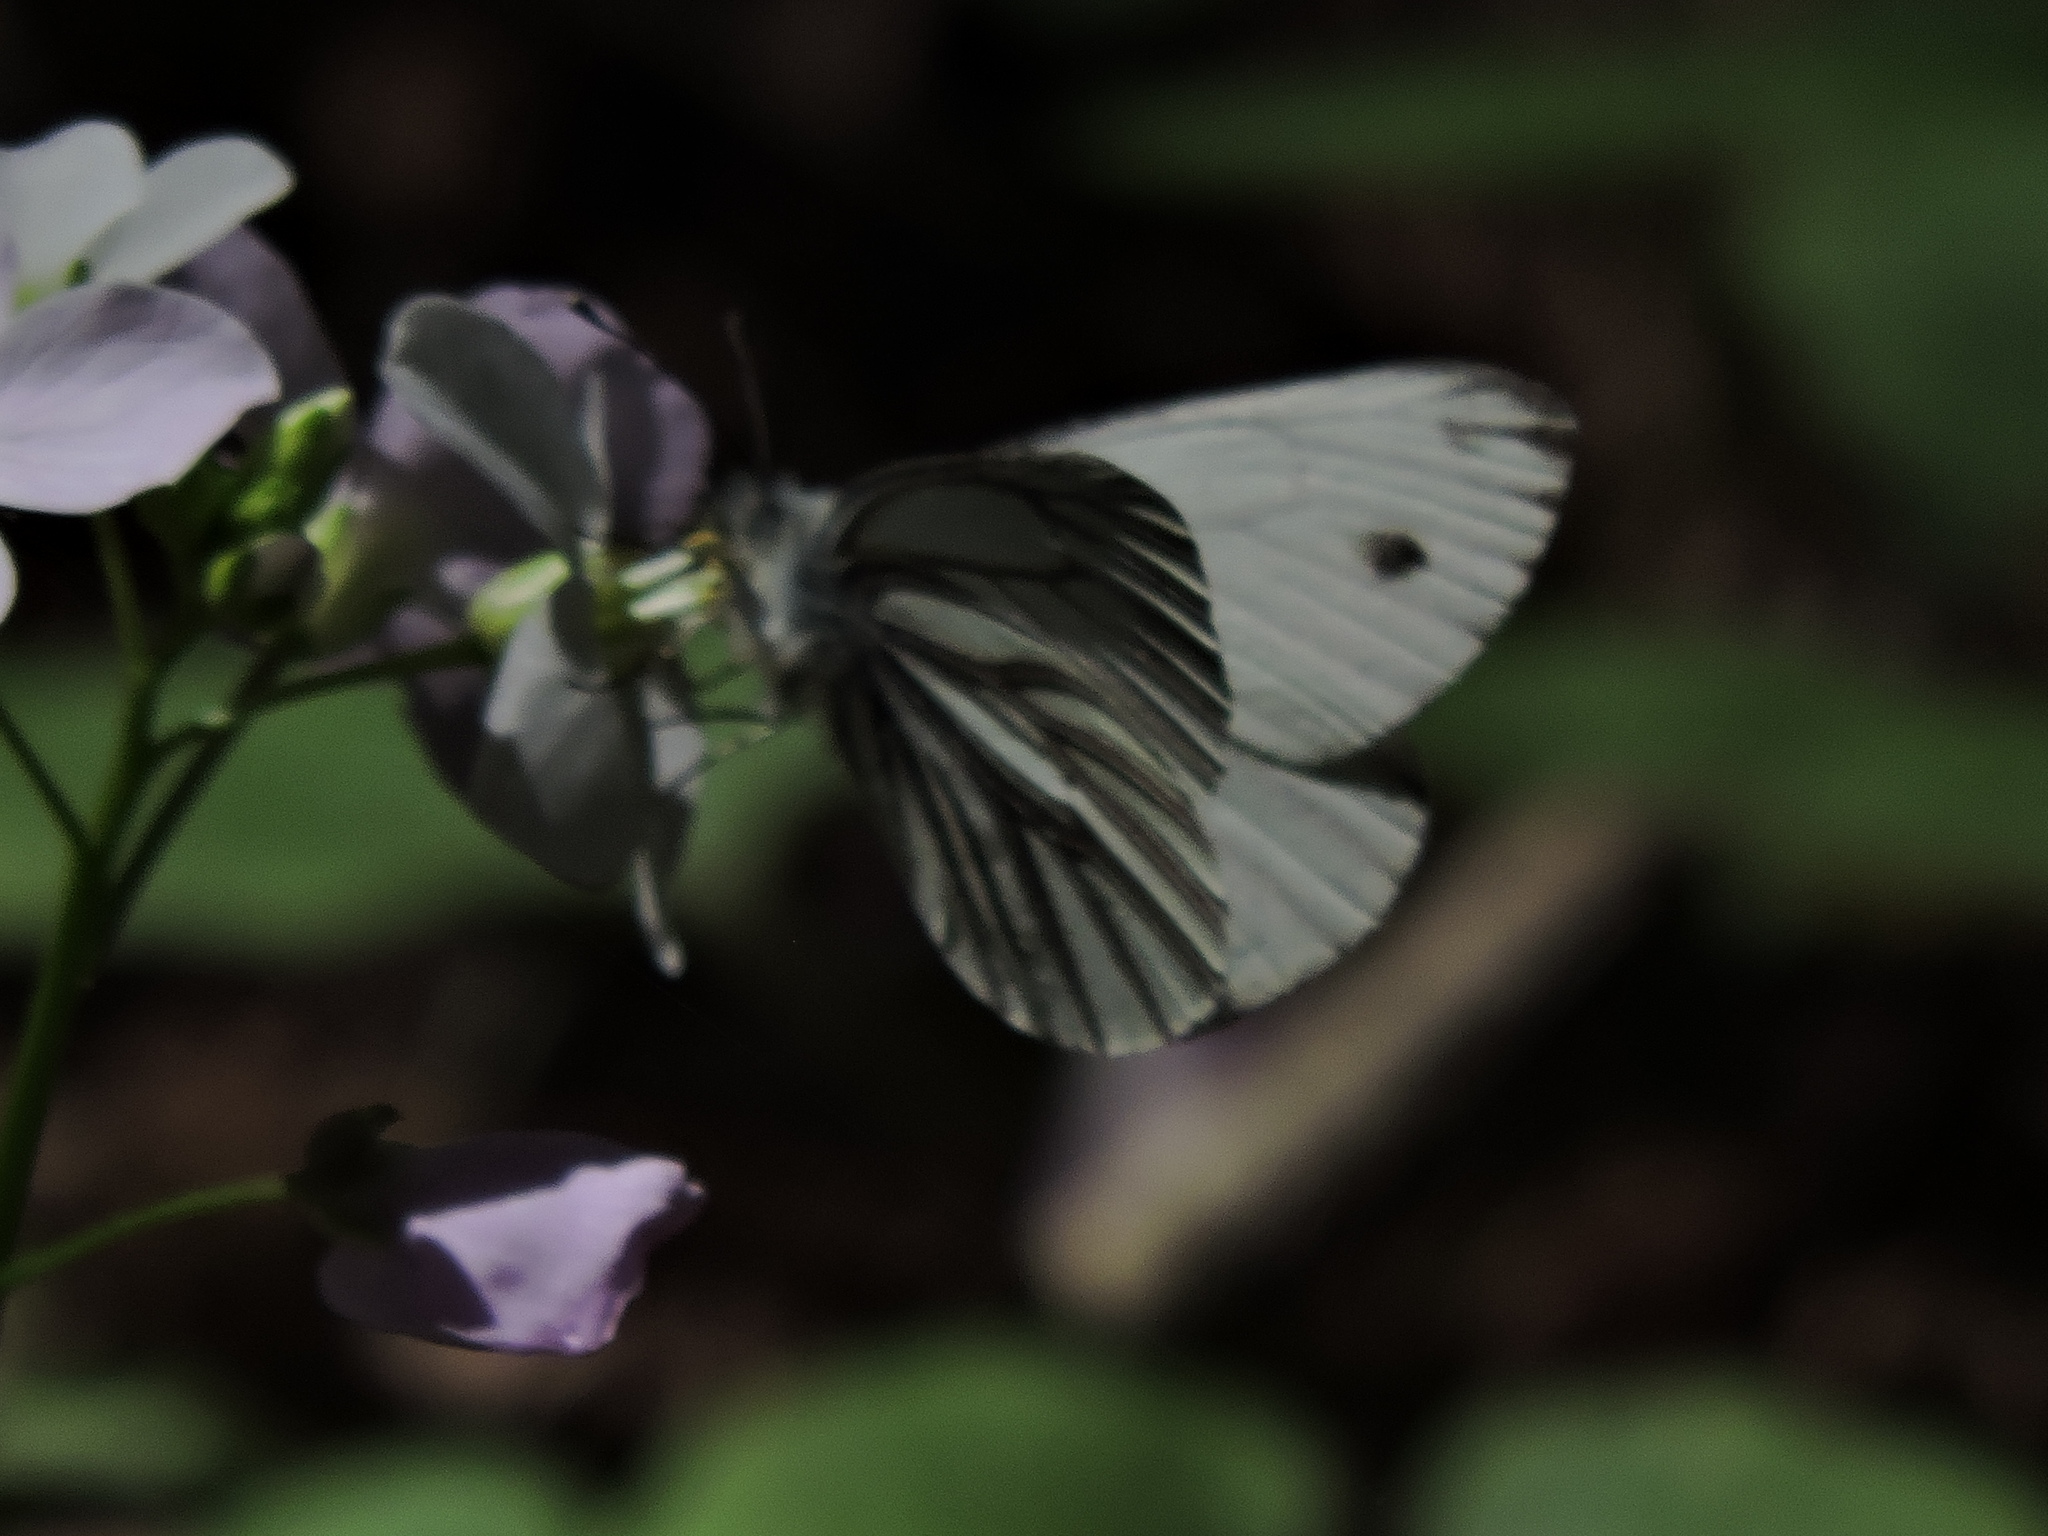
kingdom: Animalia
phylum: Arthropoda
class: Insecta
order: Lepidoptera
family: Pieridae
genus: Pieris
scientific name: Pieris marginalis
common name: Margined white
